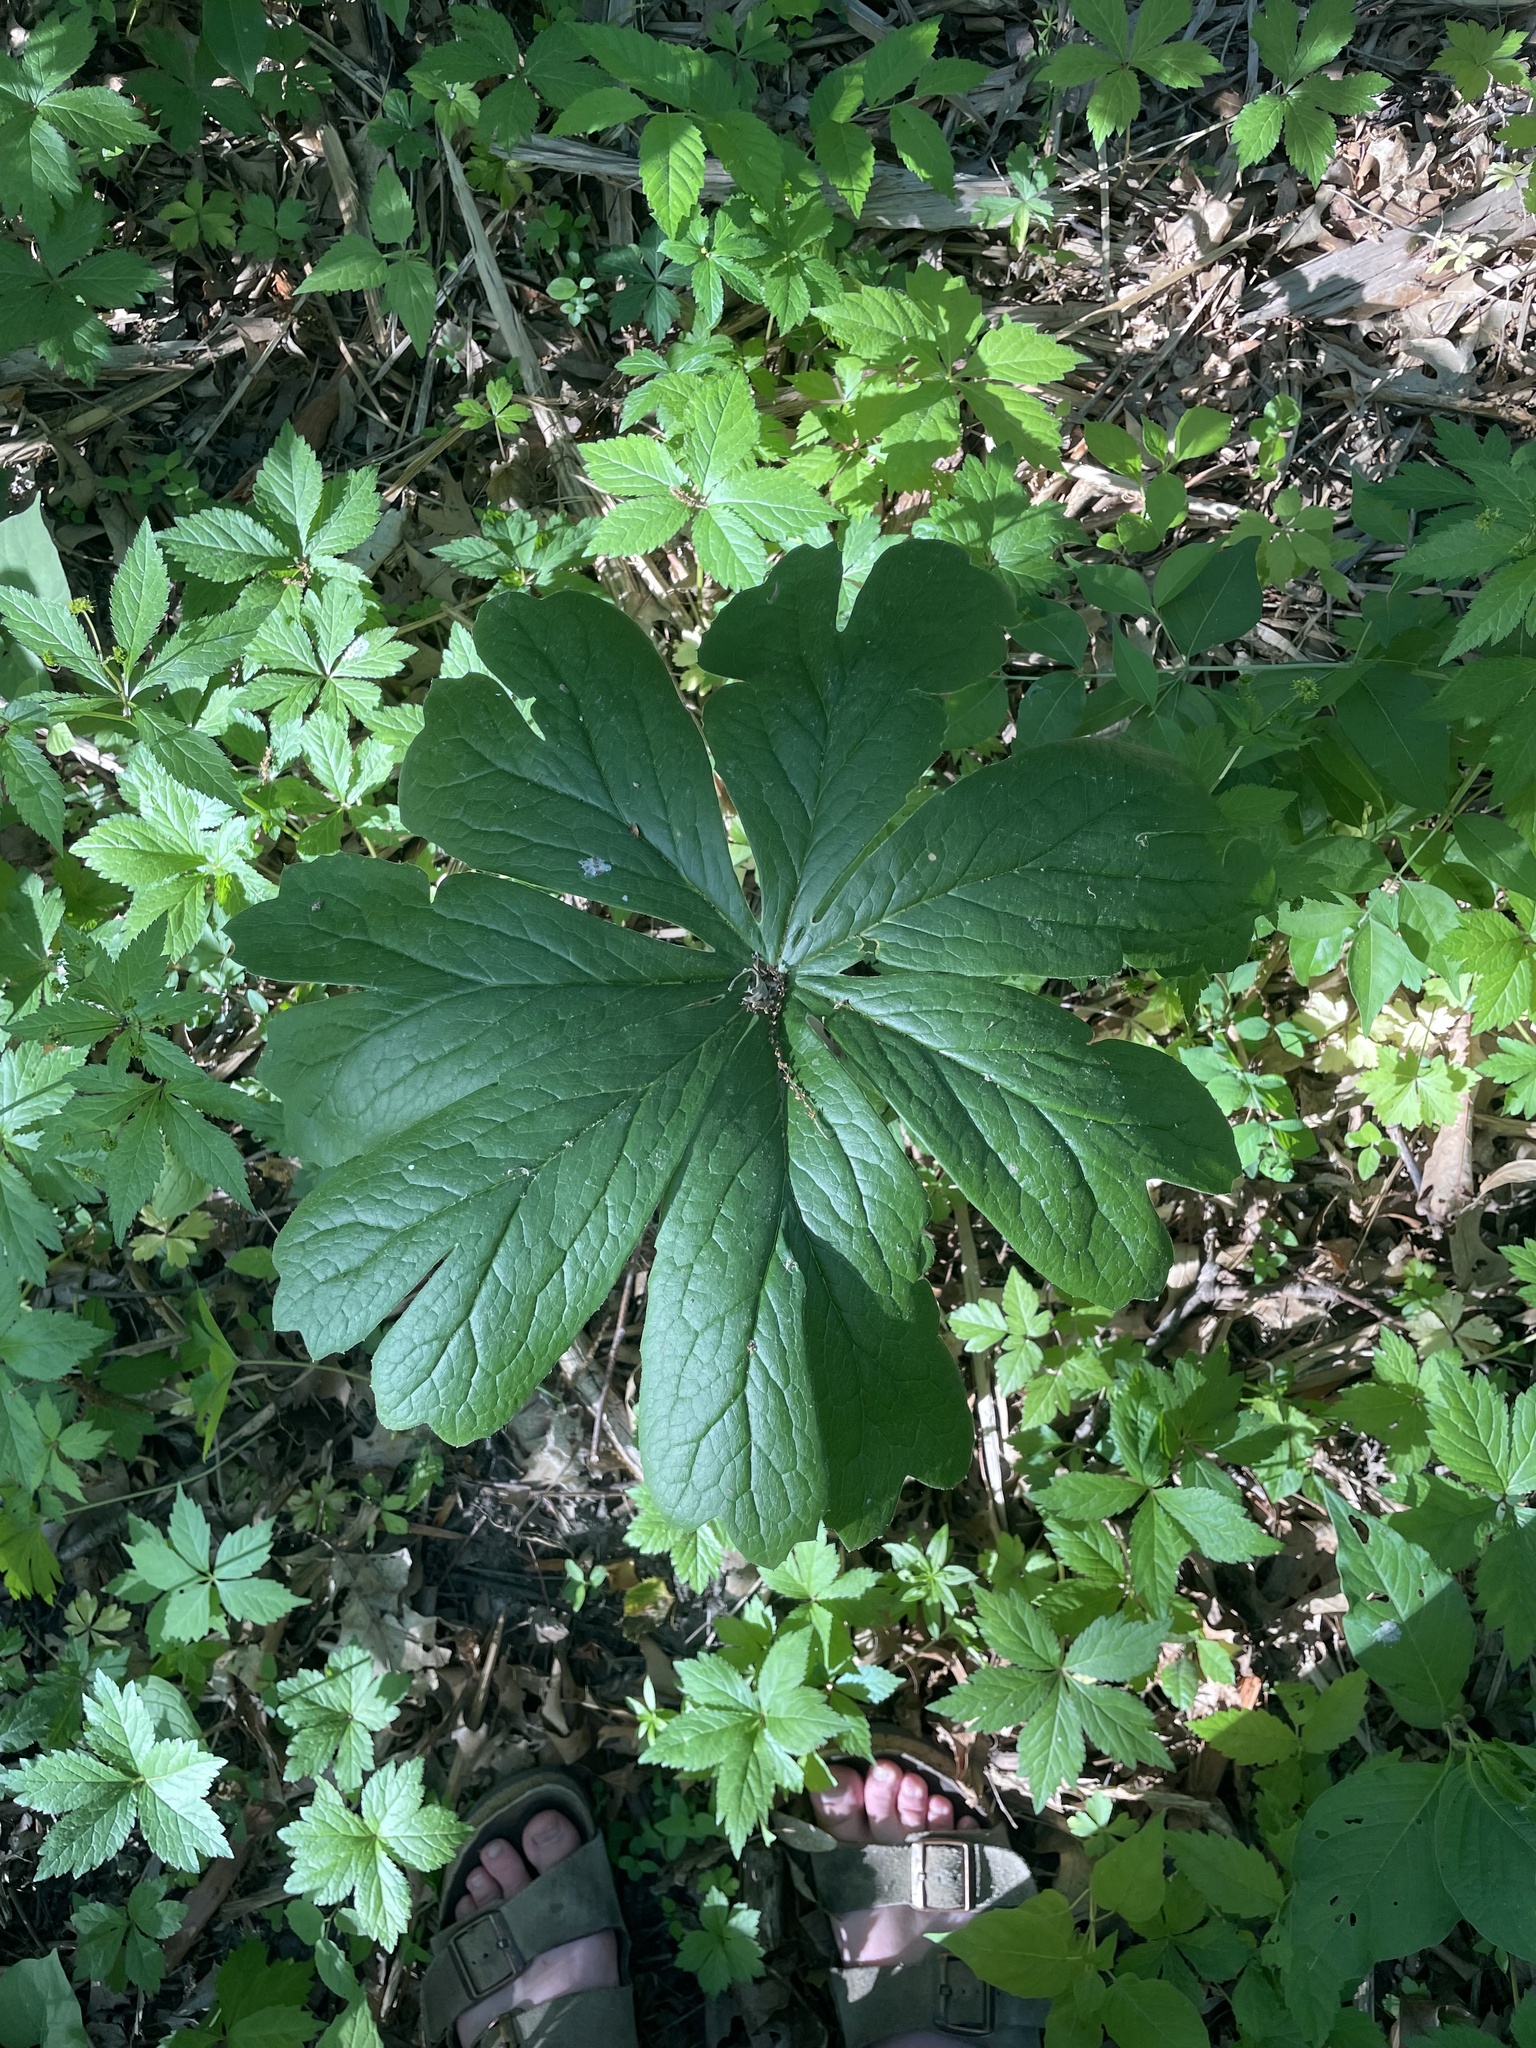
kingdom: Plantae
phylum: Tracheophyta
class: Magnoliopsida
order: Ranunculales
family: Berberidaceae
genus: Podophyllum
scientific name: Podophyllum peltatum
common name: Wild mandrake
